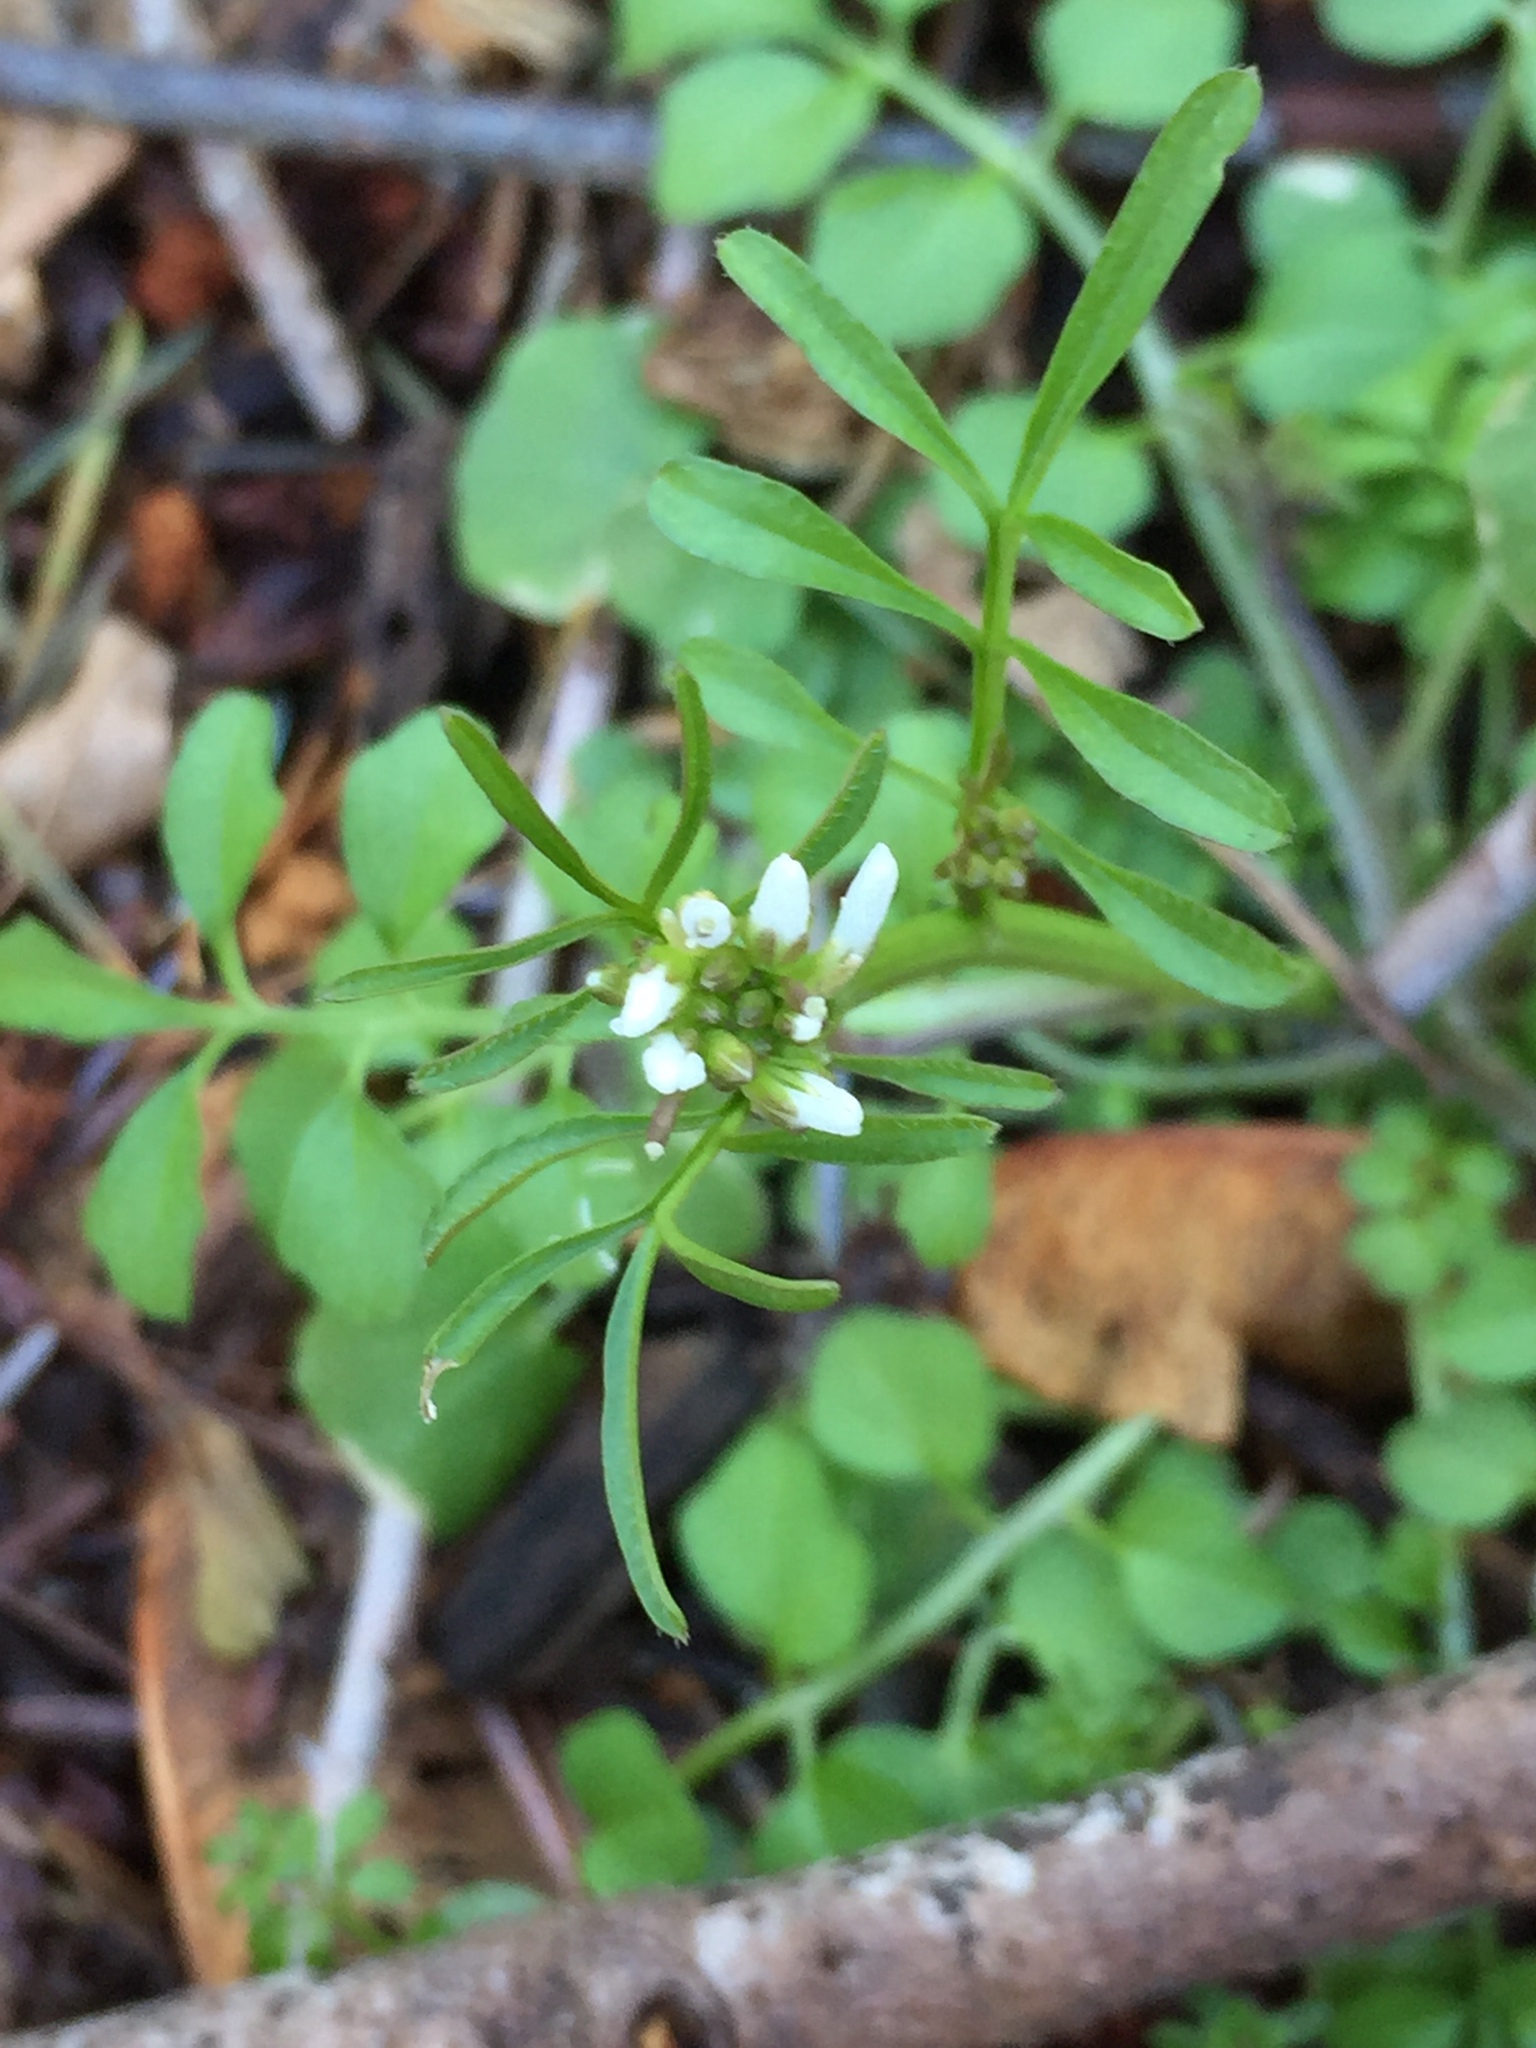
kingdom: Plantae
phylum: Tracheophyta
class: Magnoliopsida
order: Brassicales
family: Brassicaceae
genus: Cardamine
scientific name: Cardamine hirsuta
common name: Hairy bittercress
